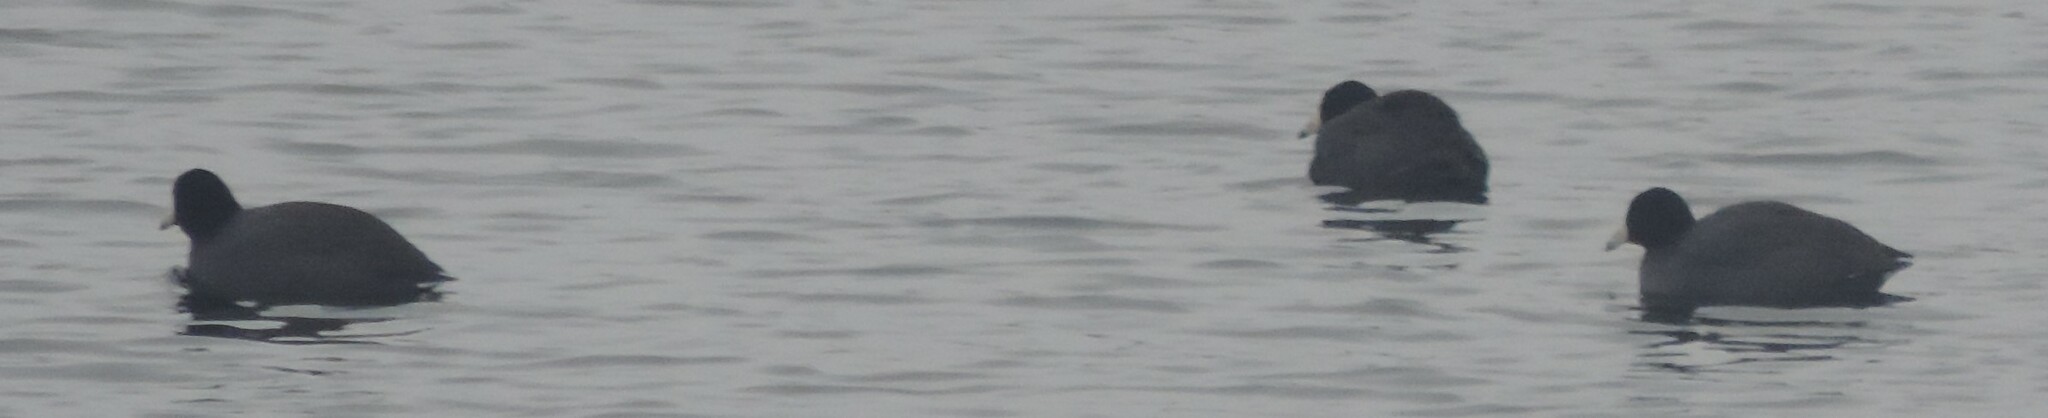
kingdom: Animalia
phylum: Chordata
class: Aves
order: Gruiformes
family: Rallidae
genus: Fulica
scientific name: Fulica americana
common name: American coot
